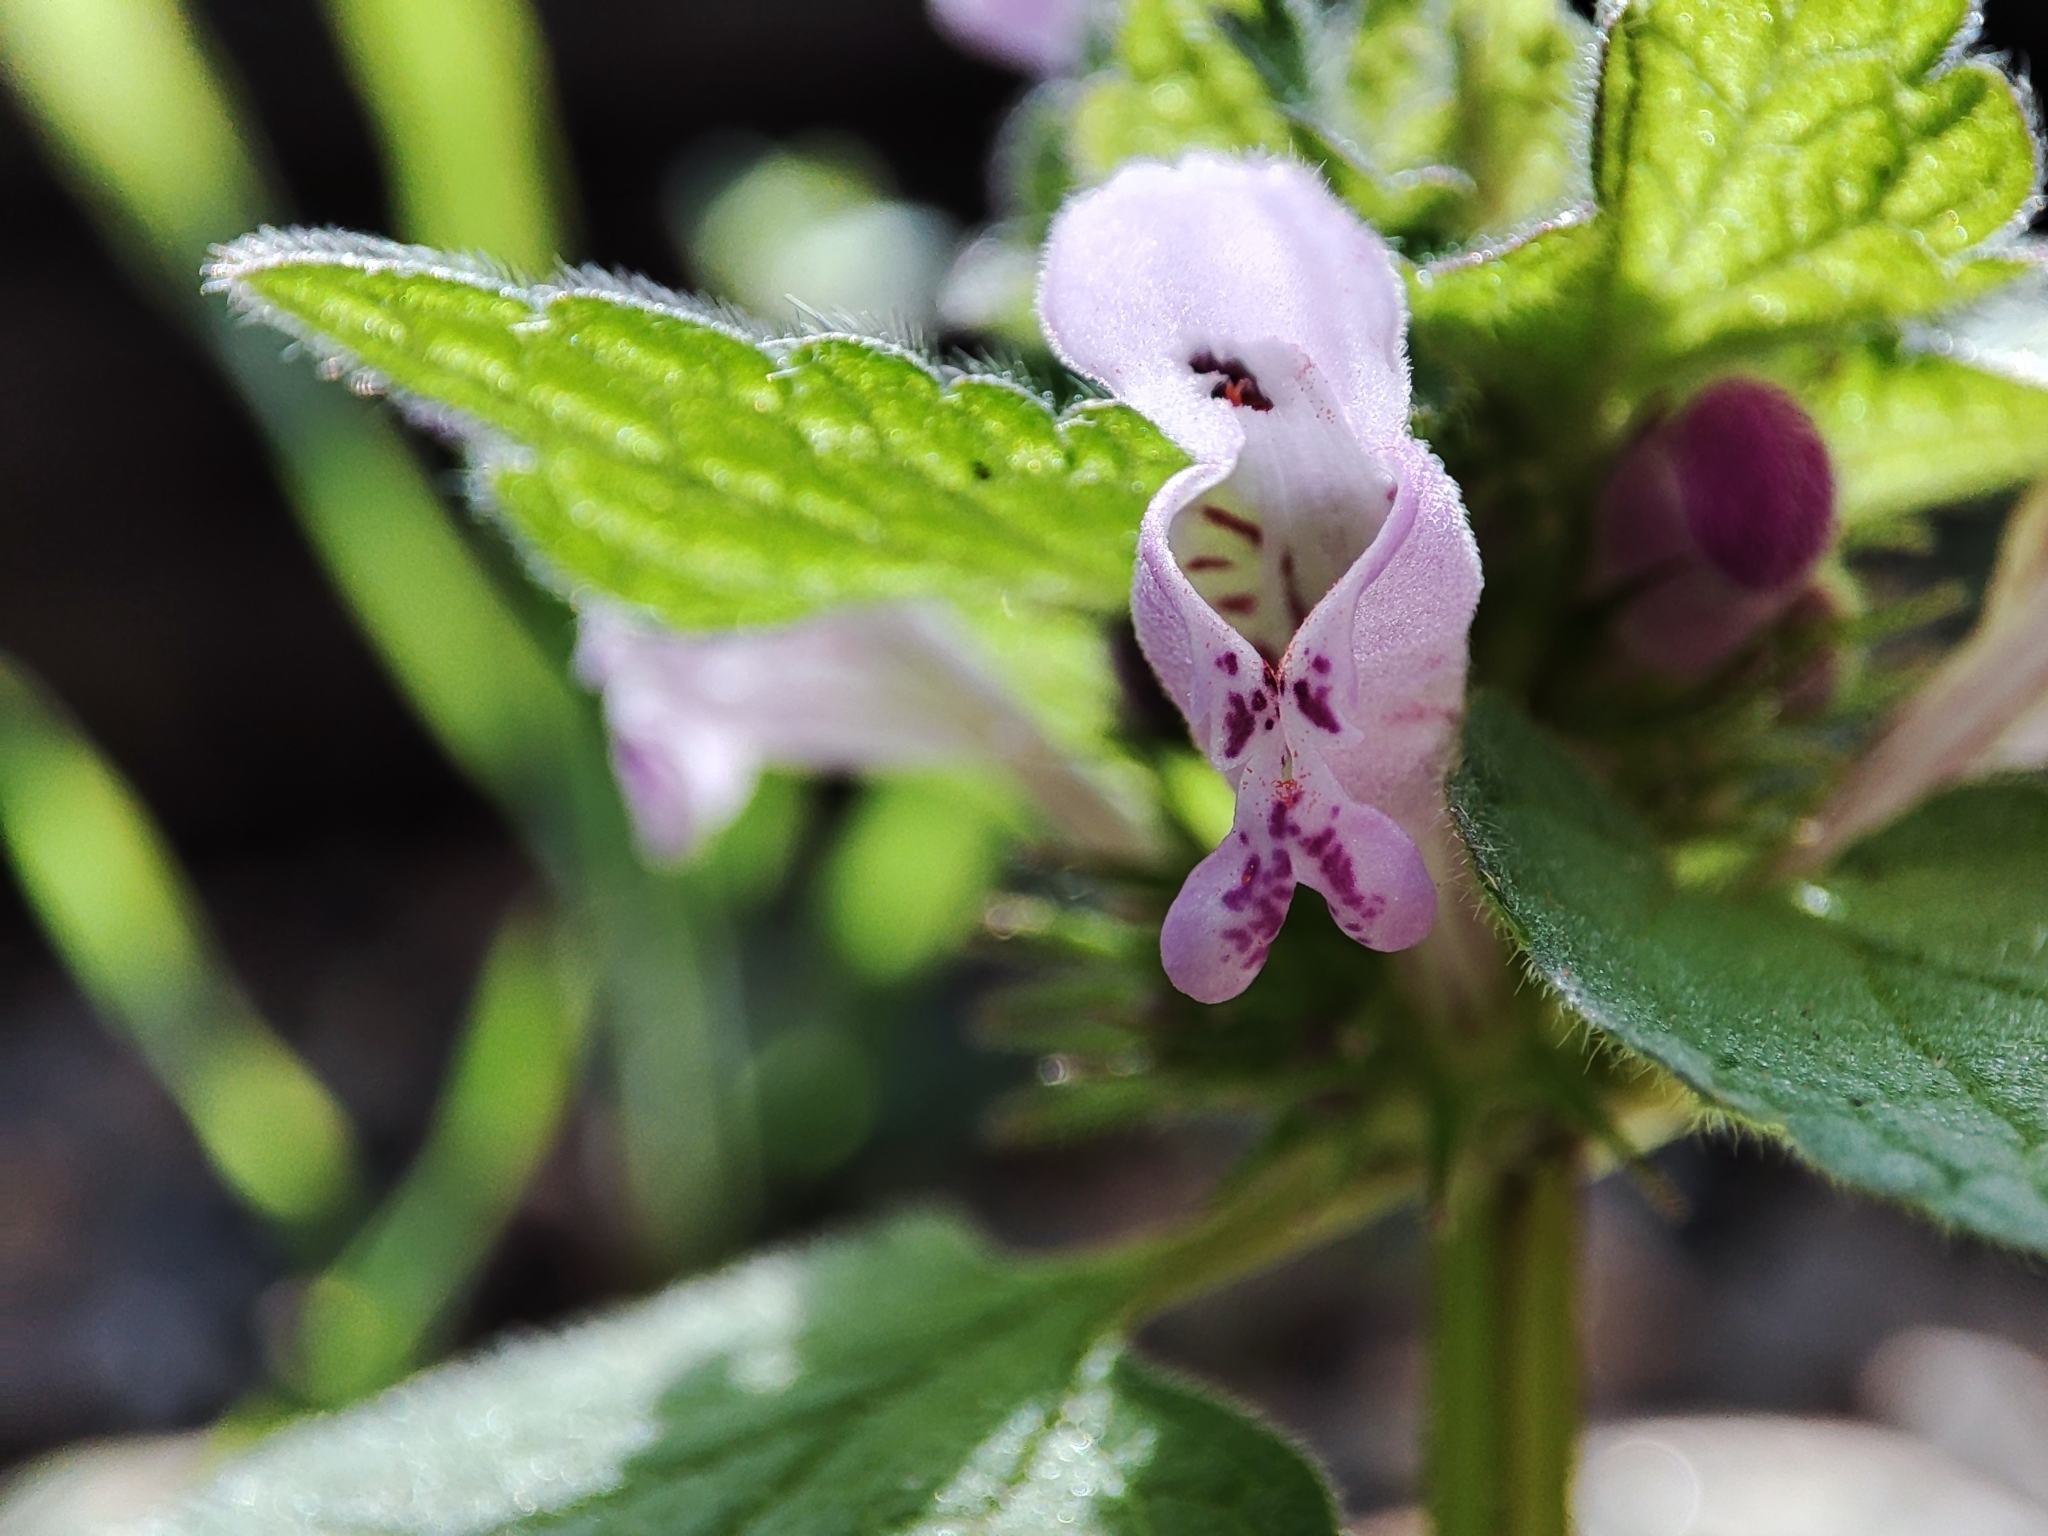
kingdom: Plantae
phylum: Tracheophyta
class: Magnoliopsida
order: Lamiales
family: Lamiaceae
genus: Lamium
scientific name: Lamium purpureum
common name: Red dead-nettle
